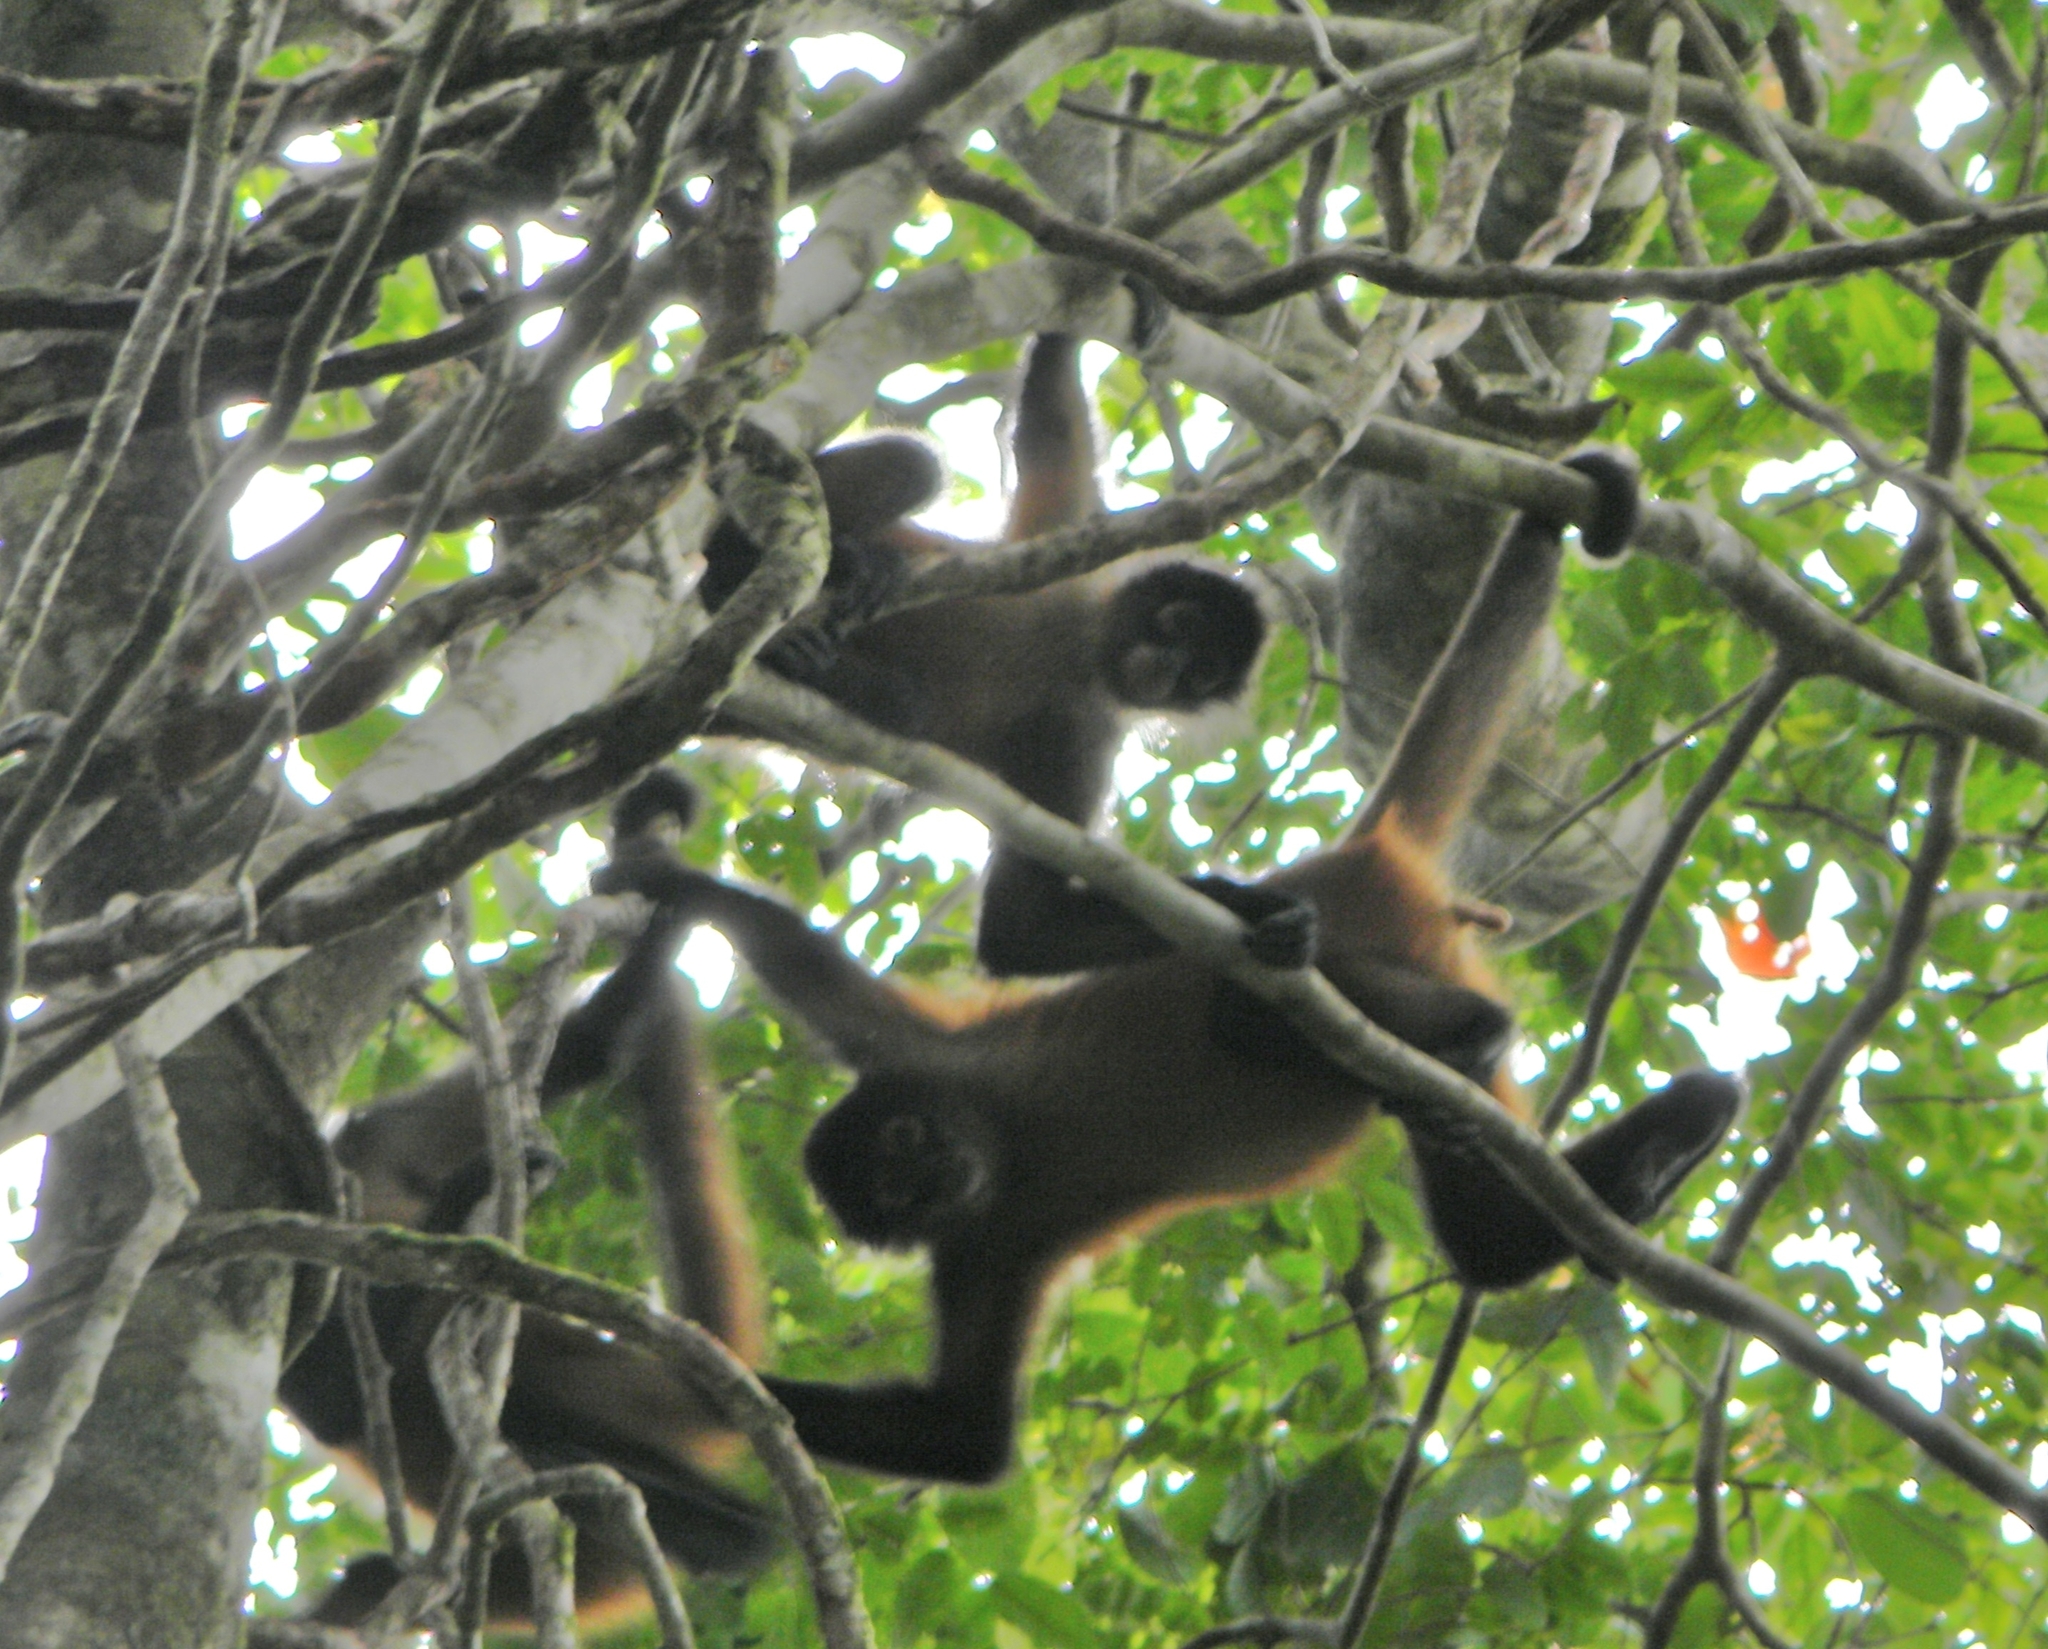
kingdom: Animalia
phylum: Chordata
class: Mammalia
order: Primates
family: Atelidae
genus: Ateles
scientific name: Ateles geoffroyi
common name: Black-handed spider monkey
